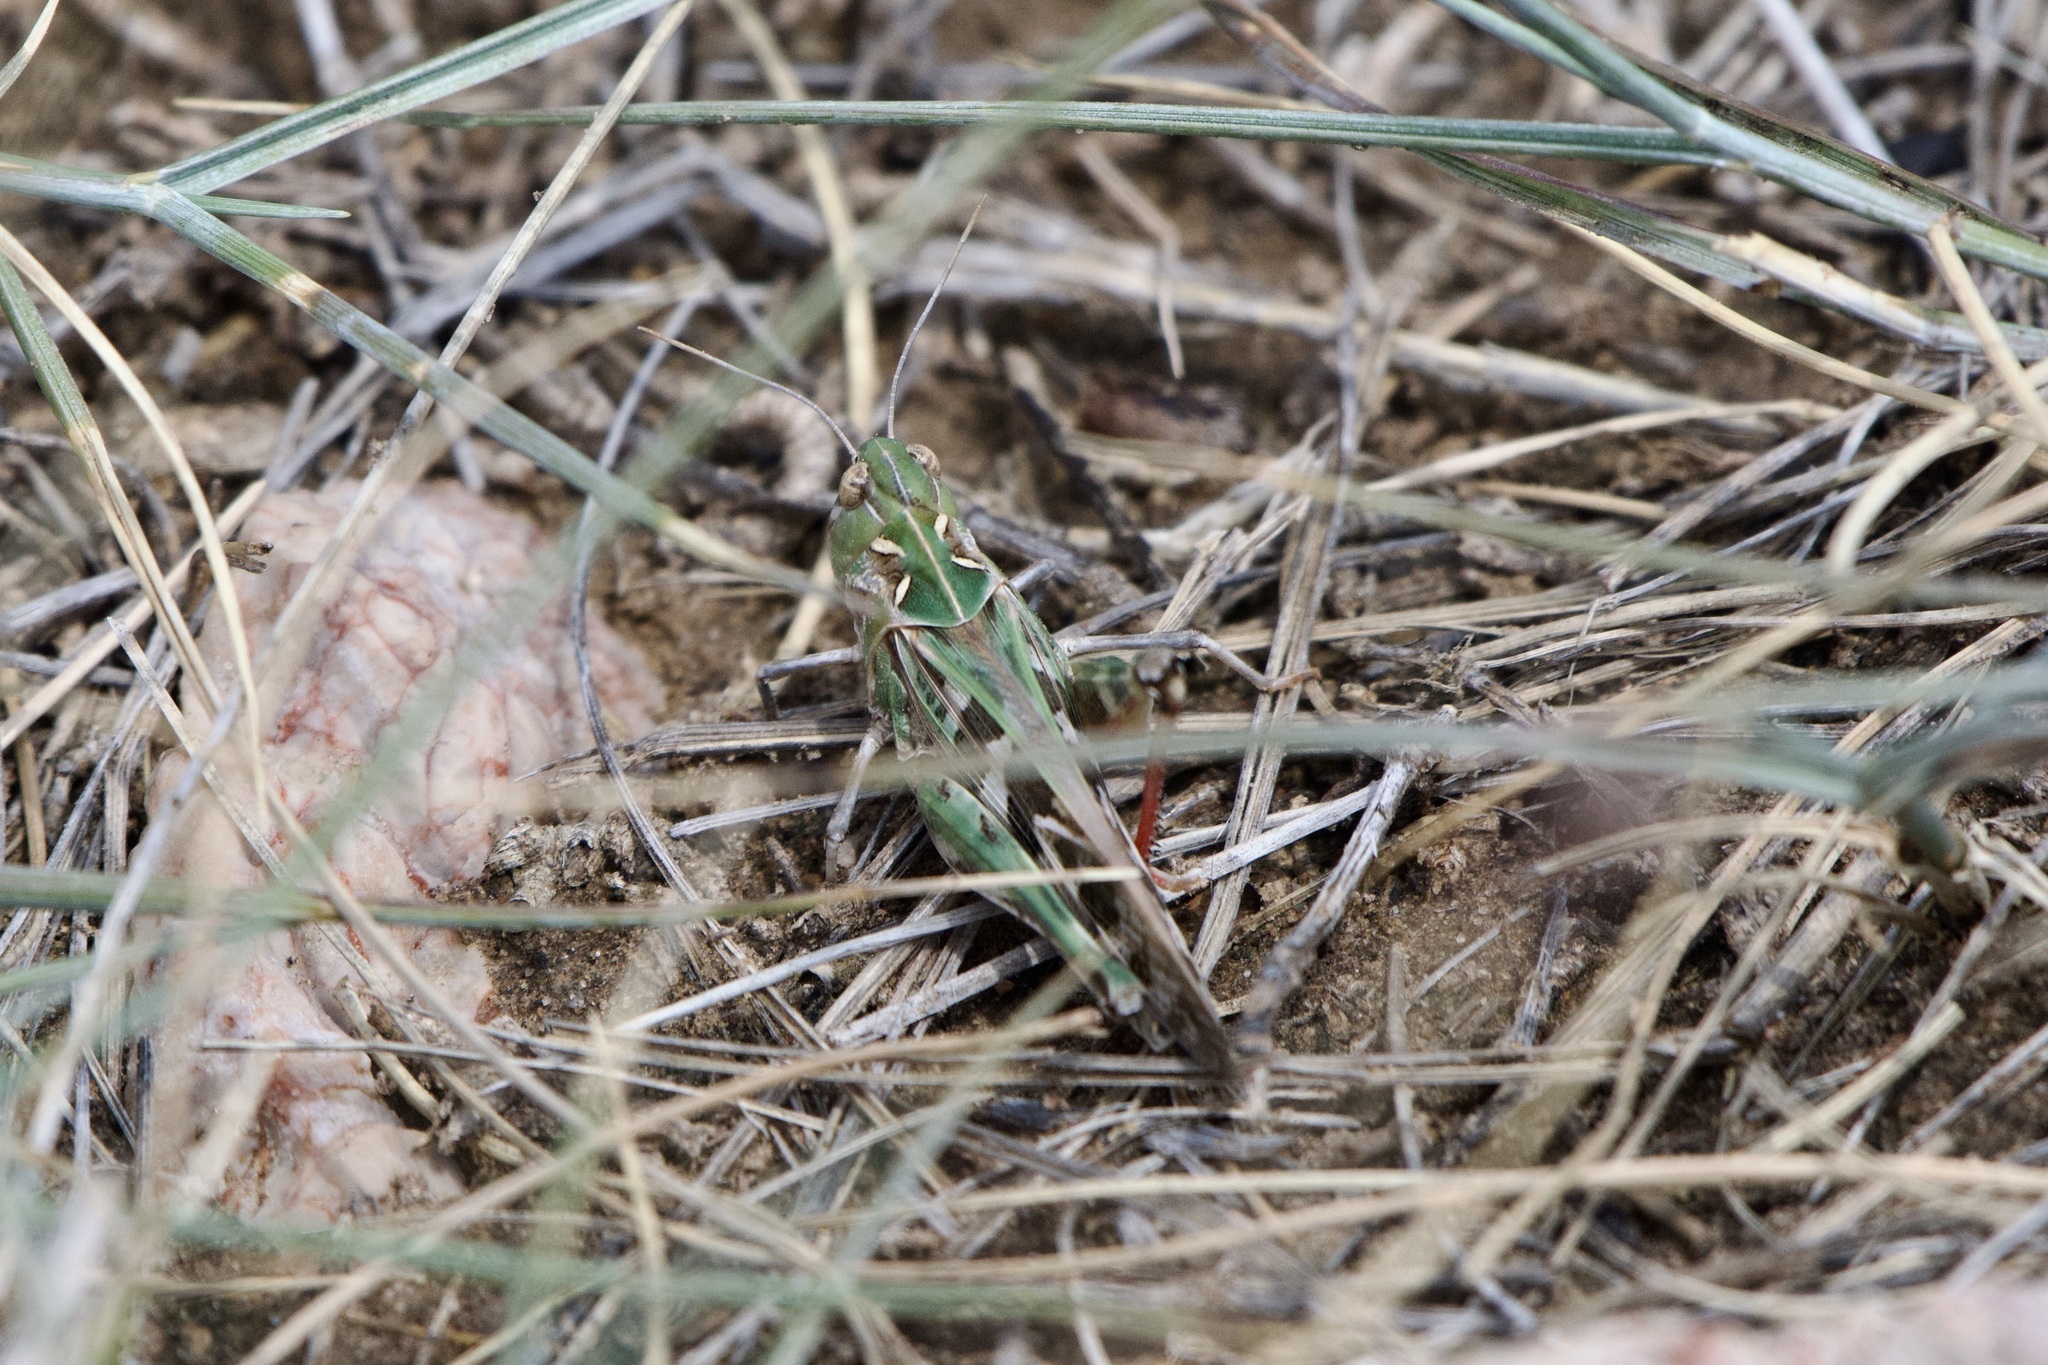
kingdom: Animalia
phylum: Arthropoda
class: Insecta
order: Orthoptera
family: Acrididae
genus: Oedaleus
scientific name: Oedaleus decorus
